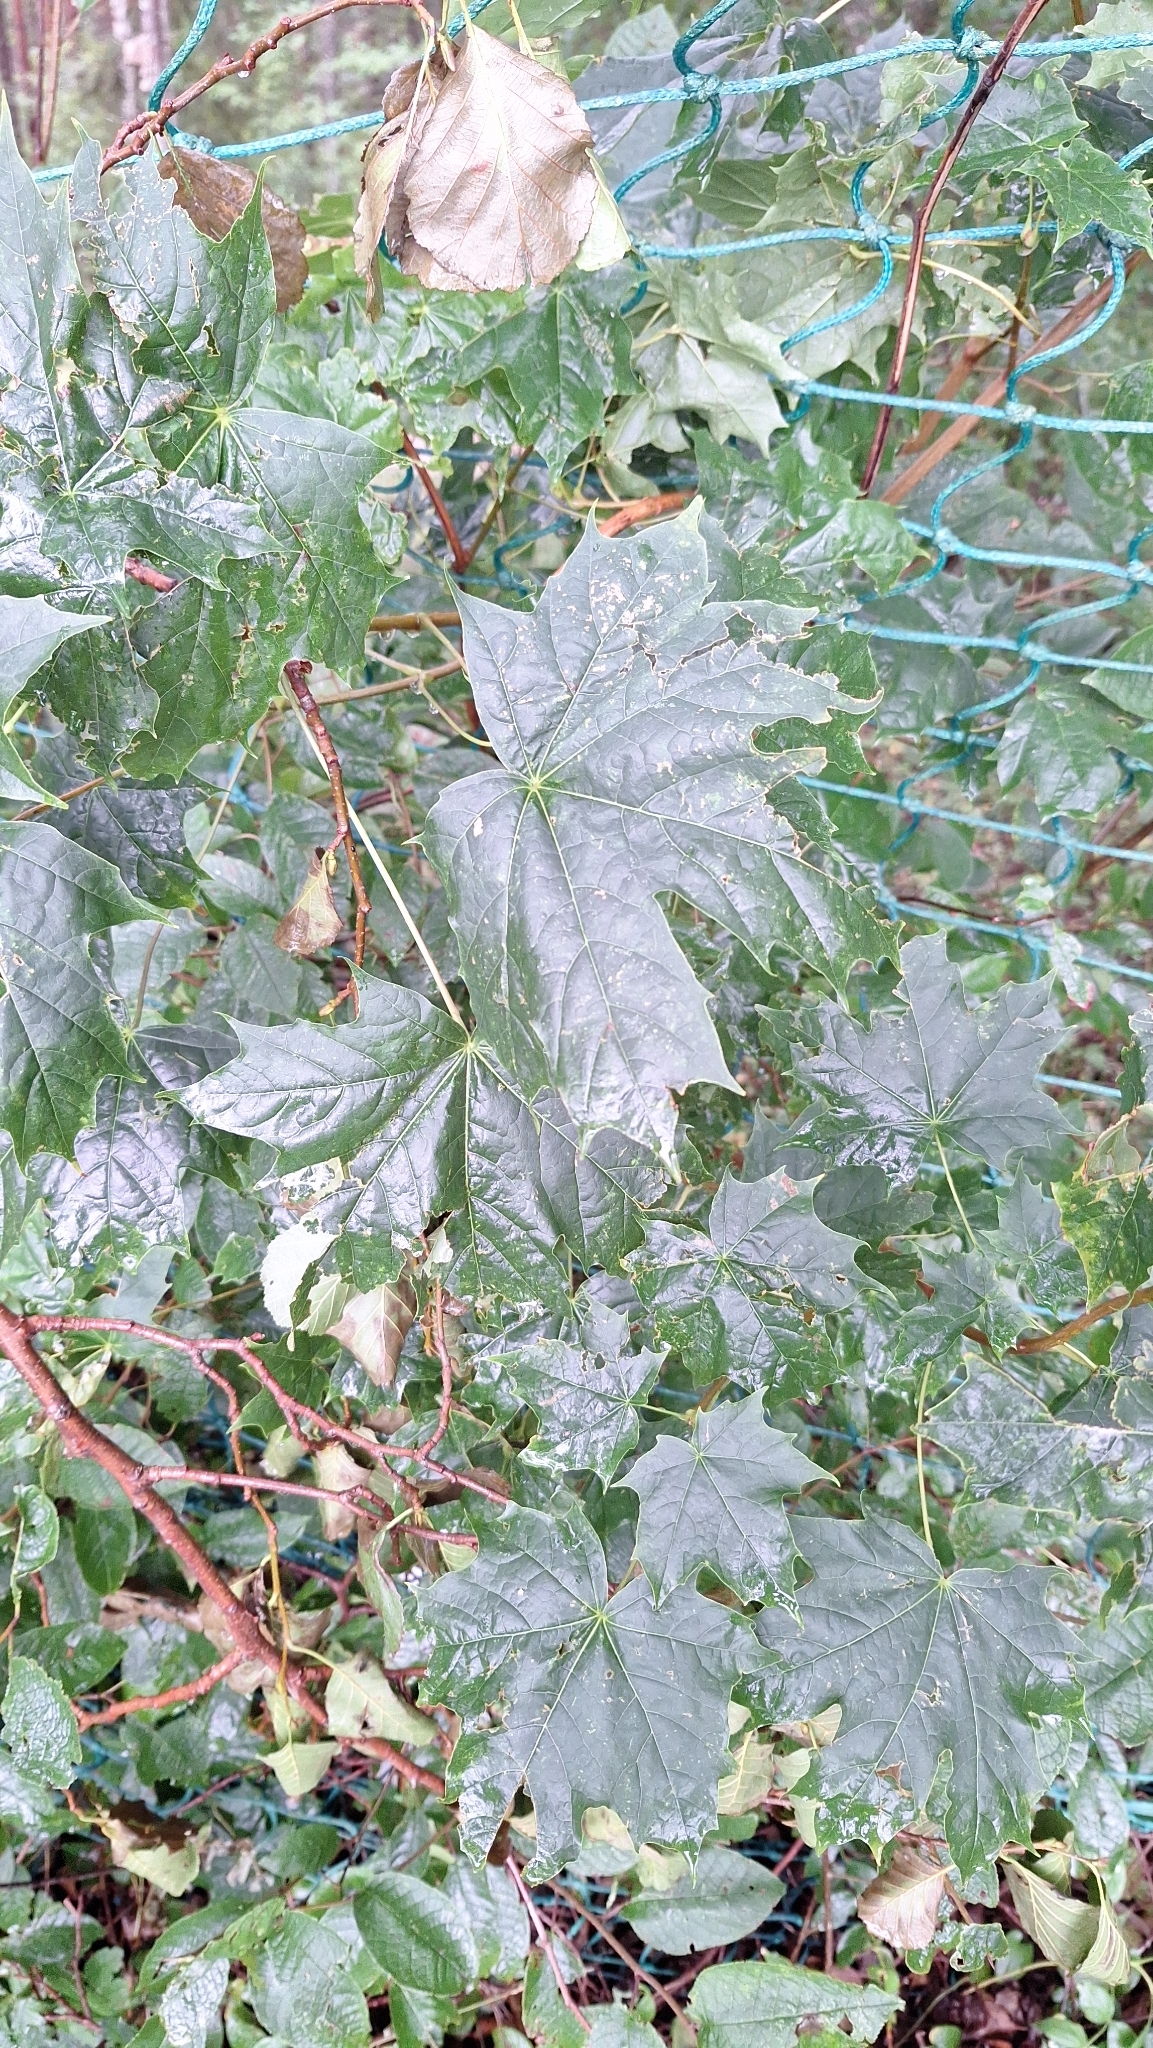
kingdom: Plantae
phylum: Tracheophyta
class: Magnoliopsida
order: Sapindales
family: Sapindaceae
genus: Acer
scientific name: Acer platanoides
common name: Norway maple
